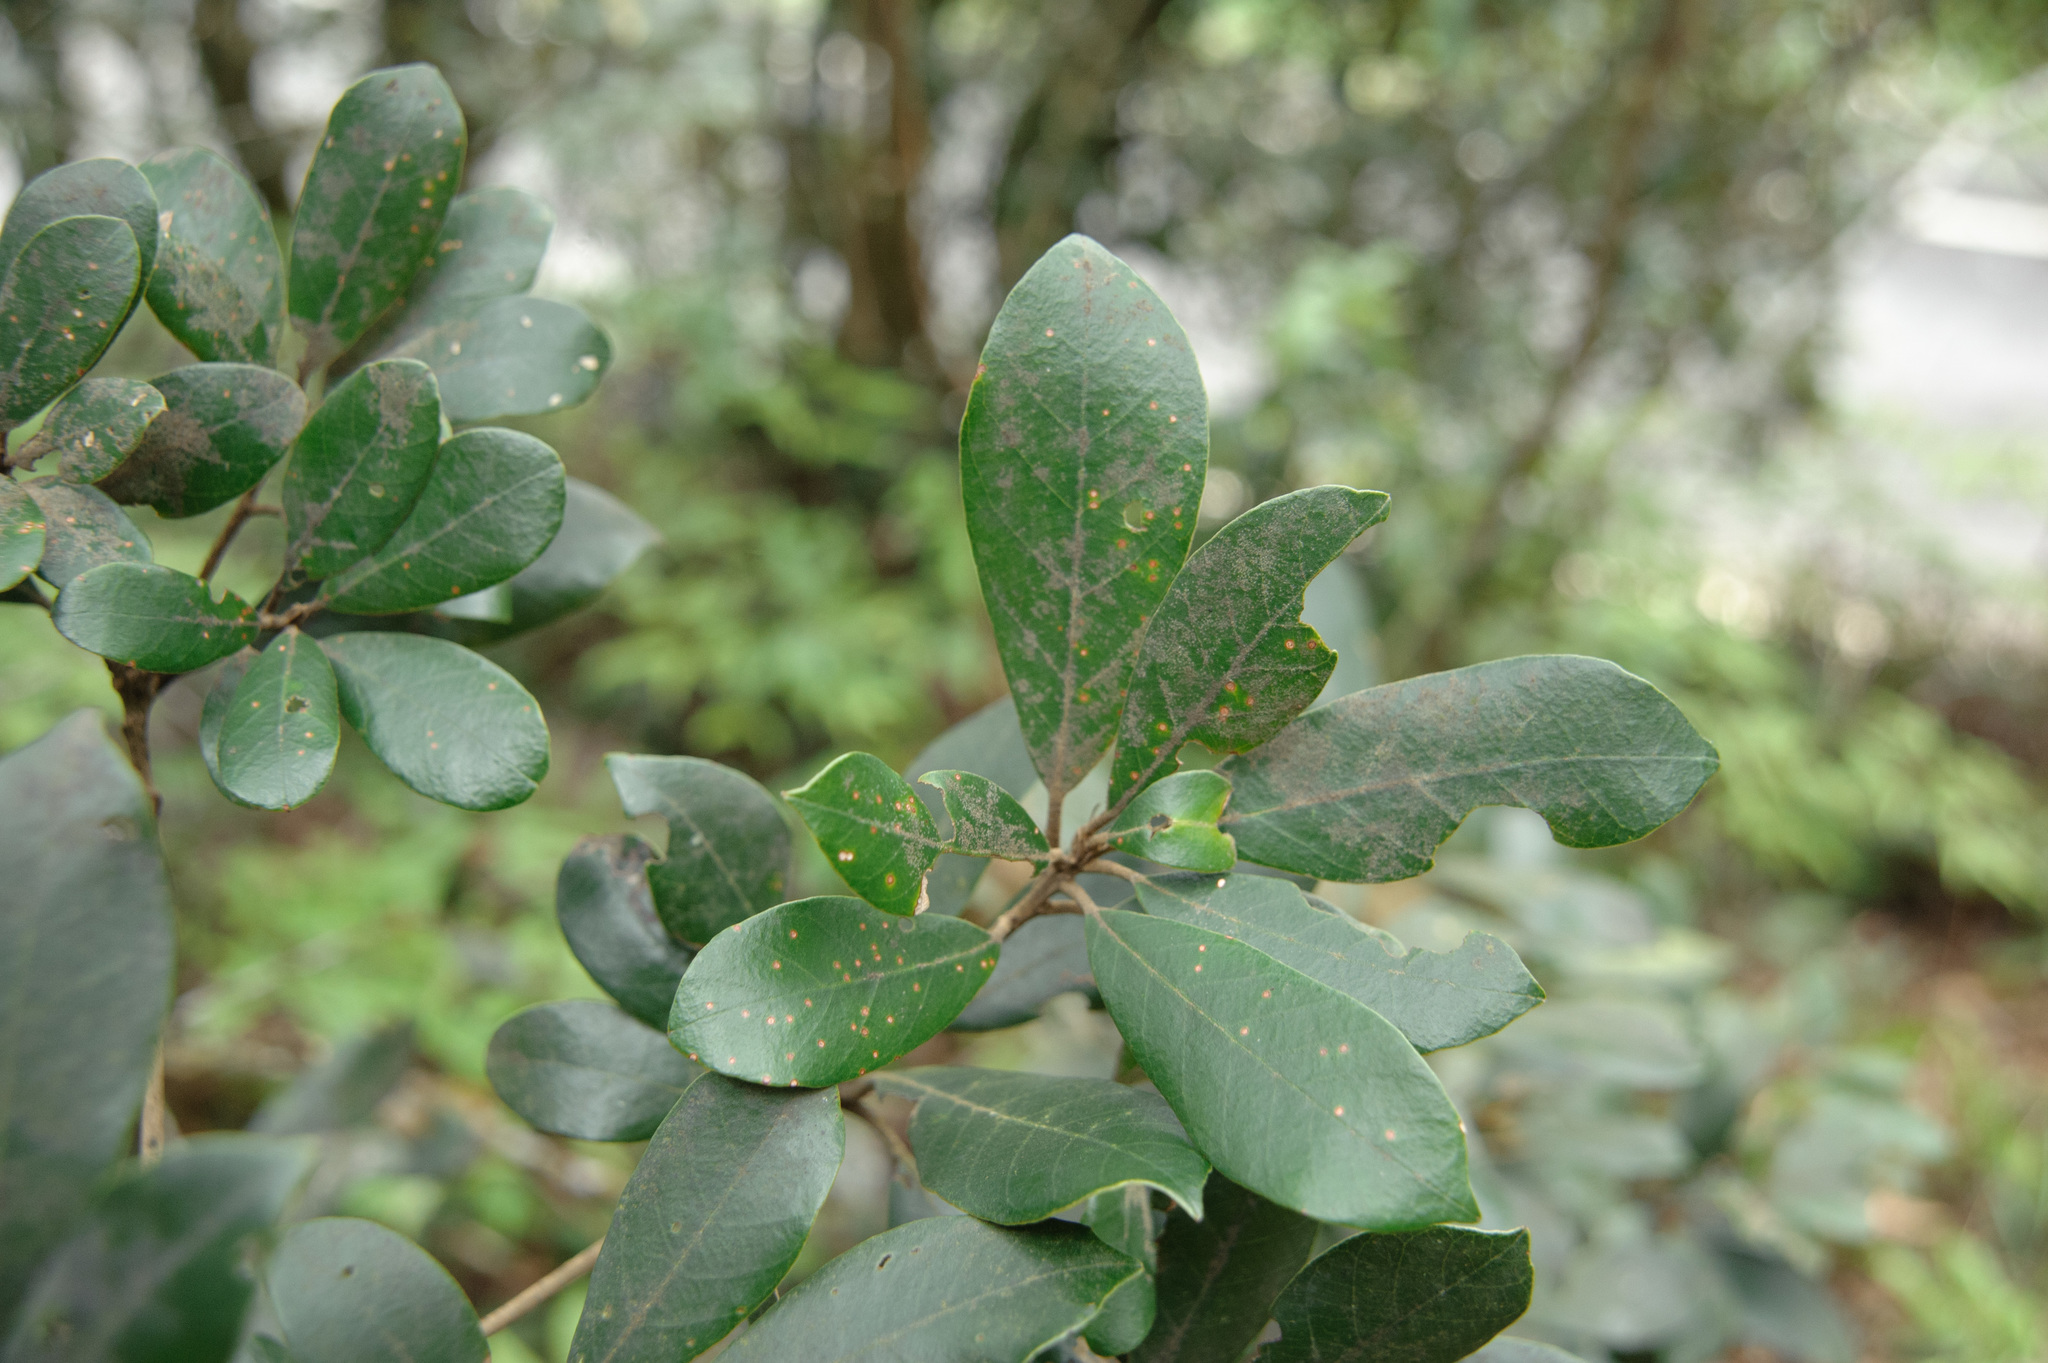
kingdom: Plantae
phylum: Tracheophyta
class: Magnoliopsida
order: Fagales
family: Fagaceae
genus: Quercus
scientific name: Quercus championii
